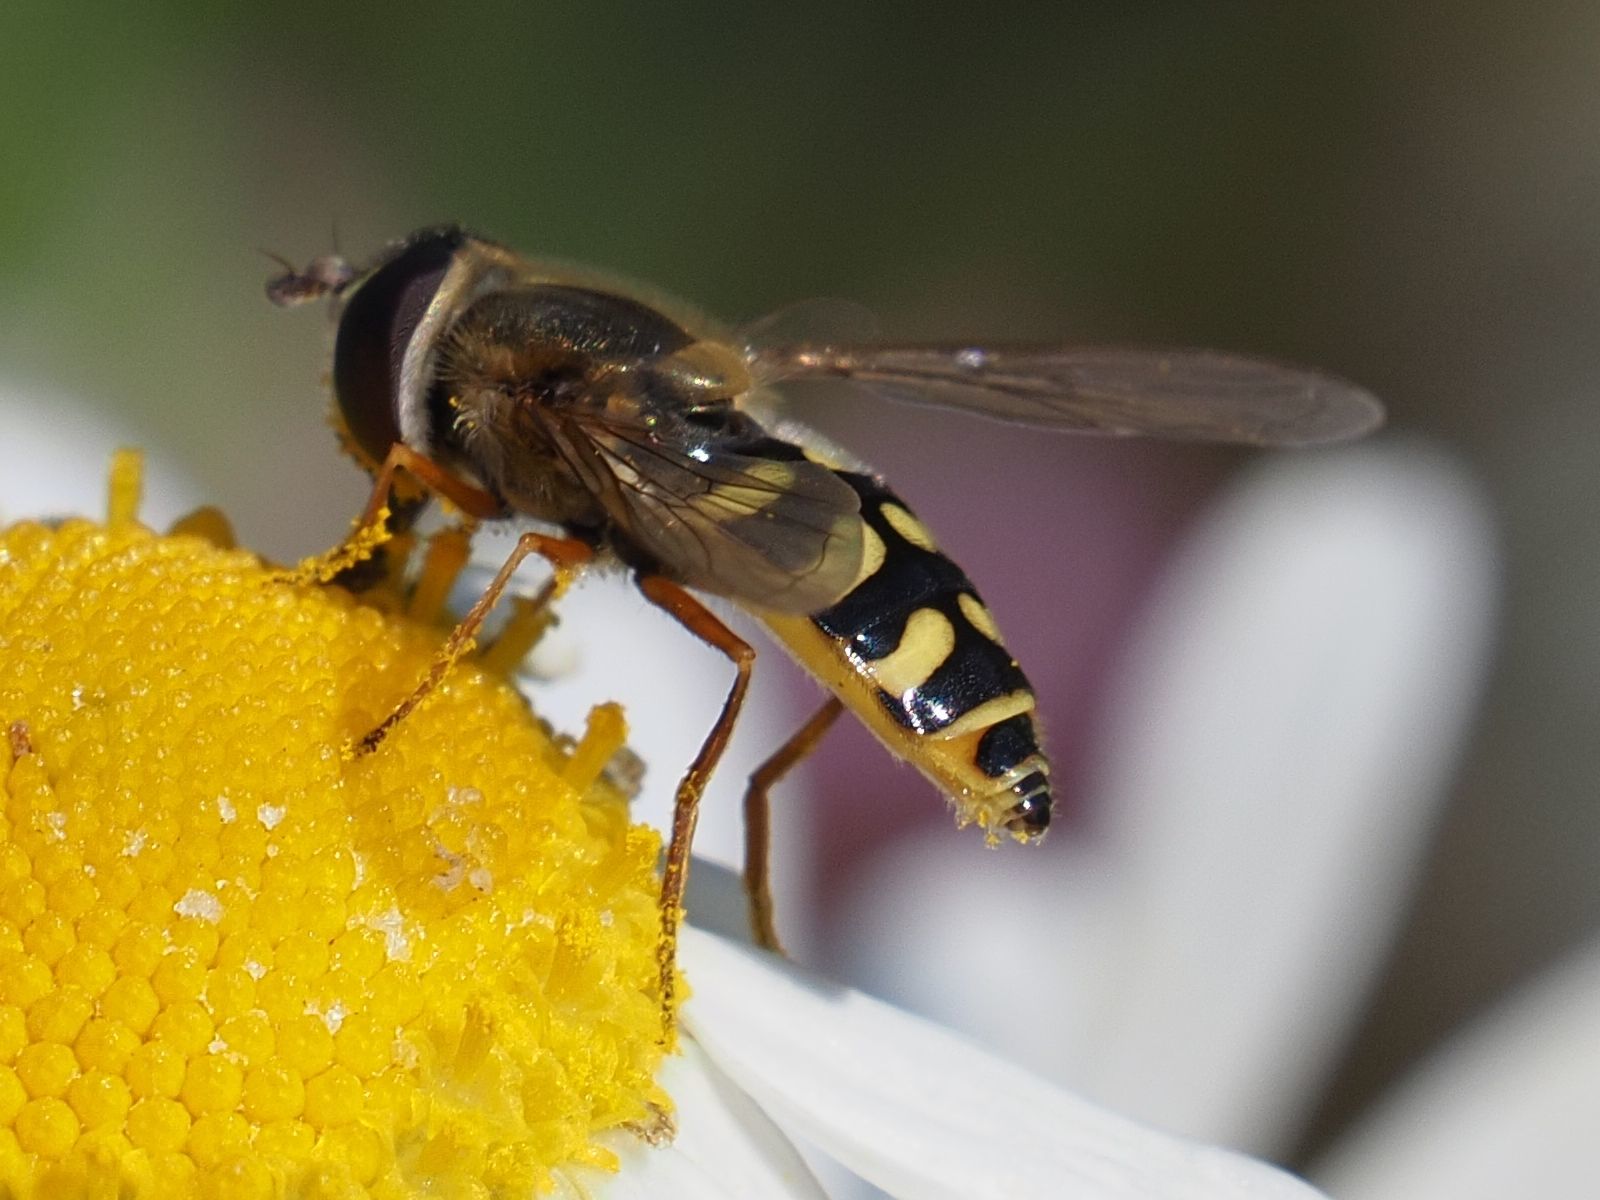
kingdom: Animalia
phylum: Arthropoda
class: Insecta
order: Diptera
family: Syrphidae
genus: Eupeodes
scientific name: Eupeodes corollae
